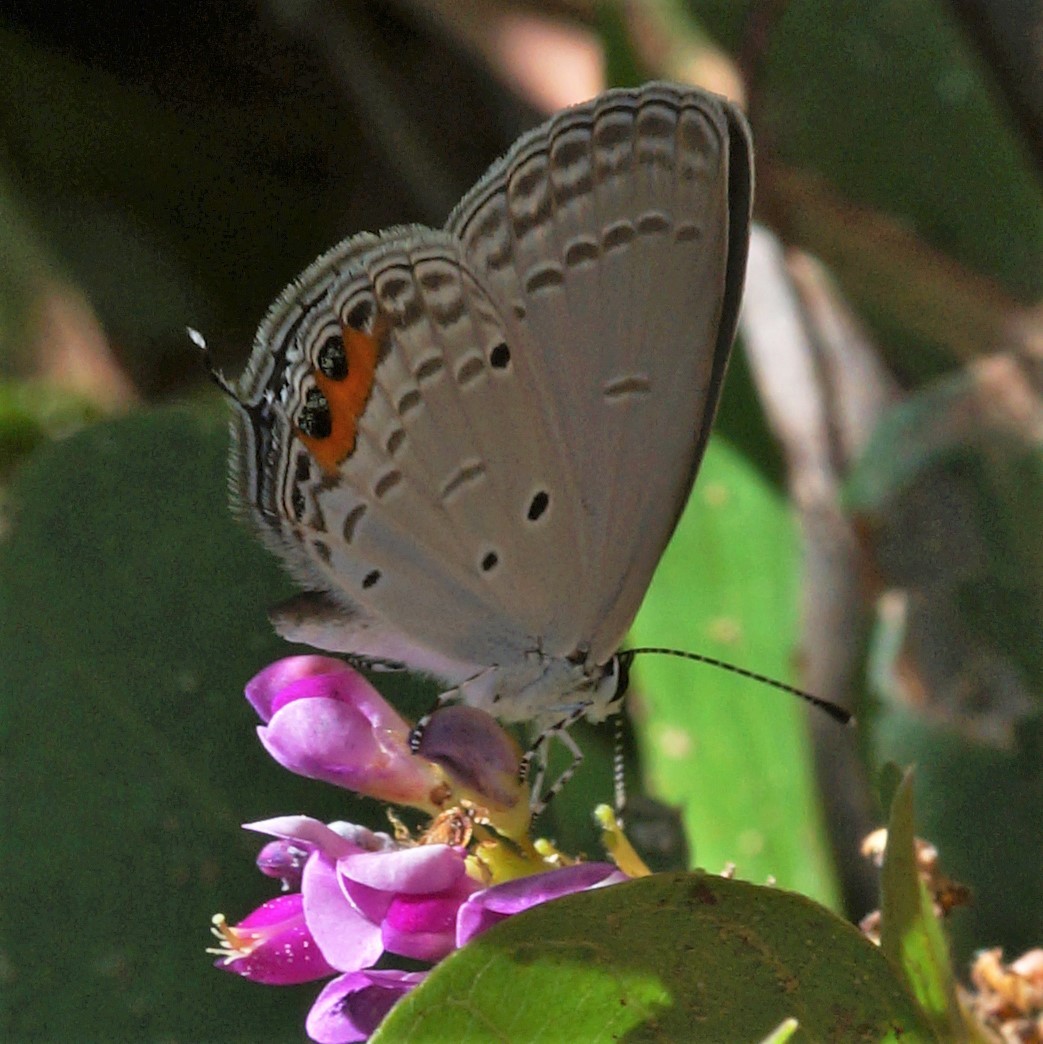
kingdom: Animalia
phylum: Arthropoda
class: Insecta
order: Lepidoptera
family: Lycaenidae
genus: Everes
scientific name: Everes lacturnus
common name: Orange-tipped pea-blue
